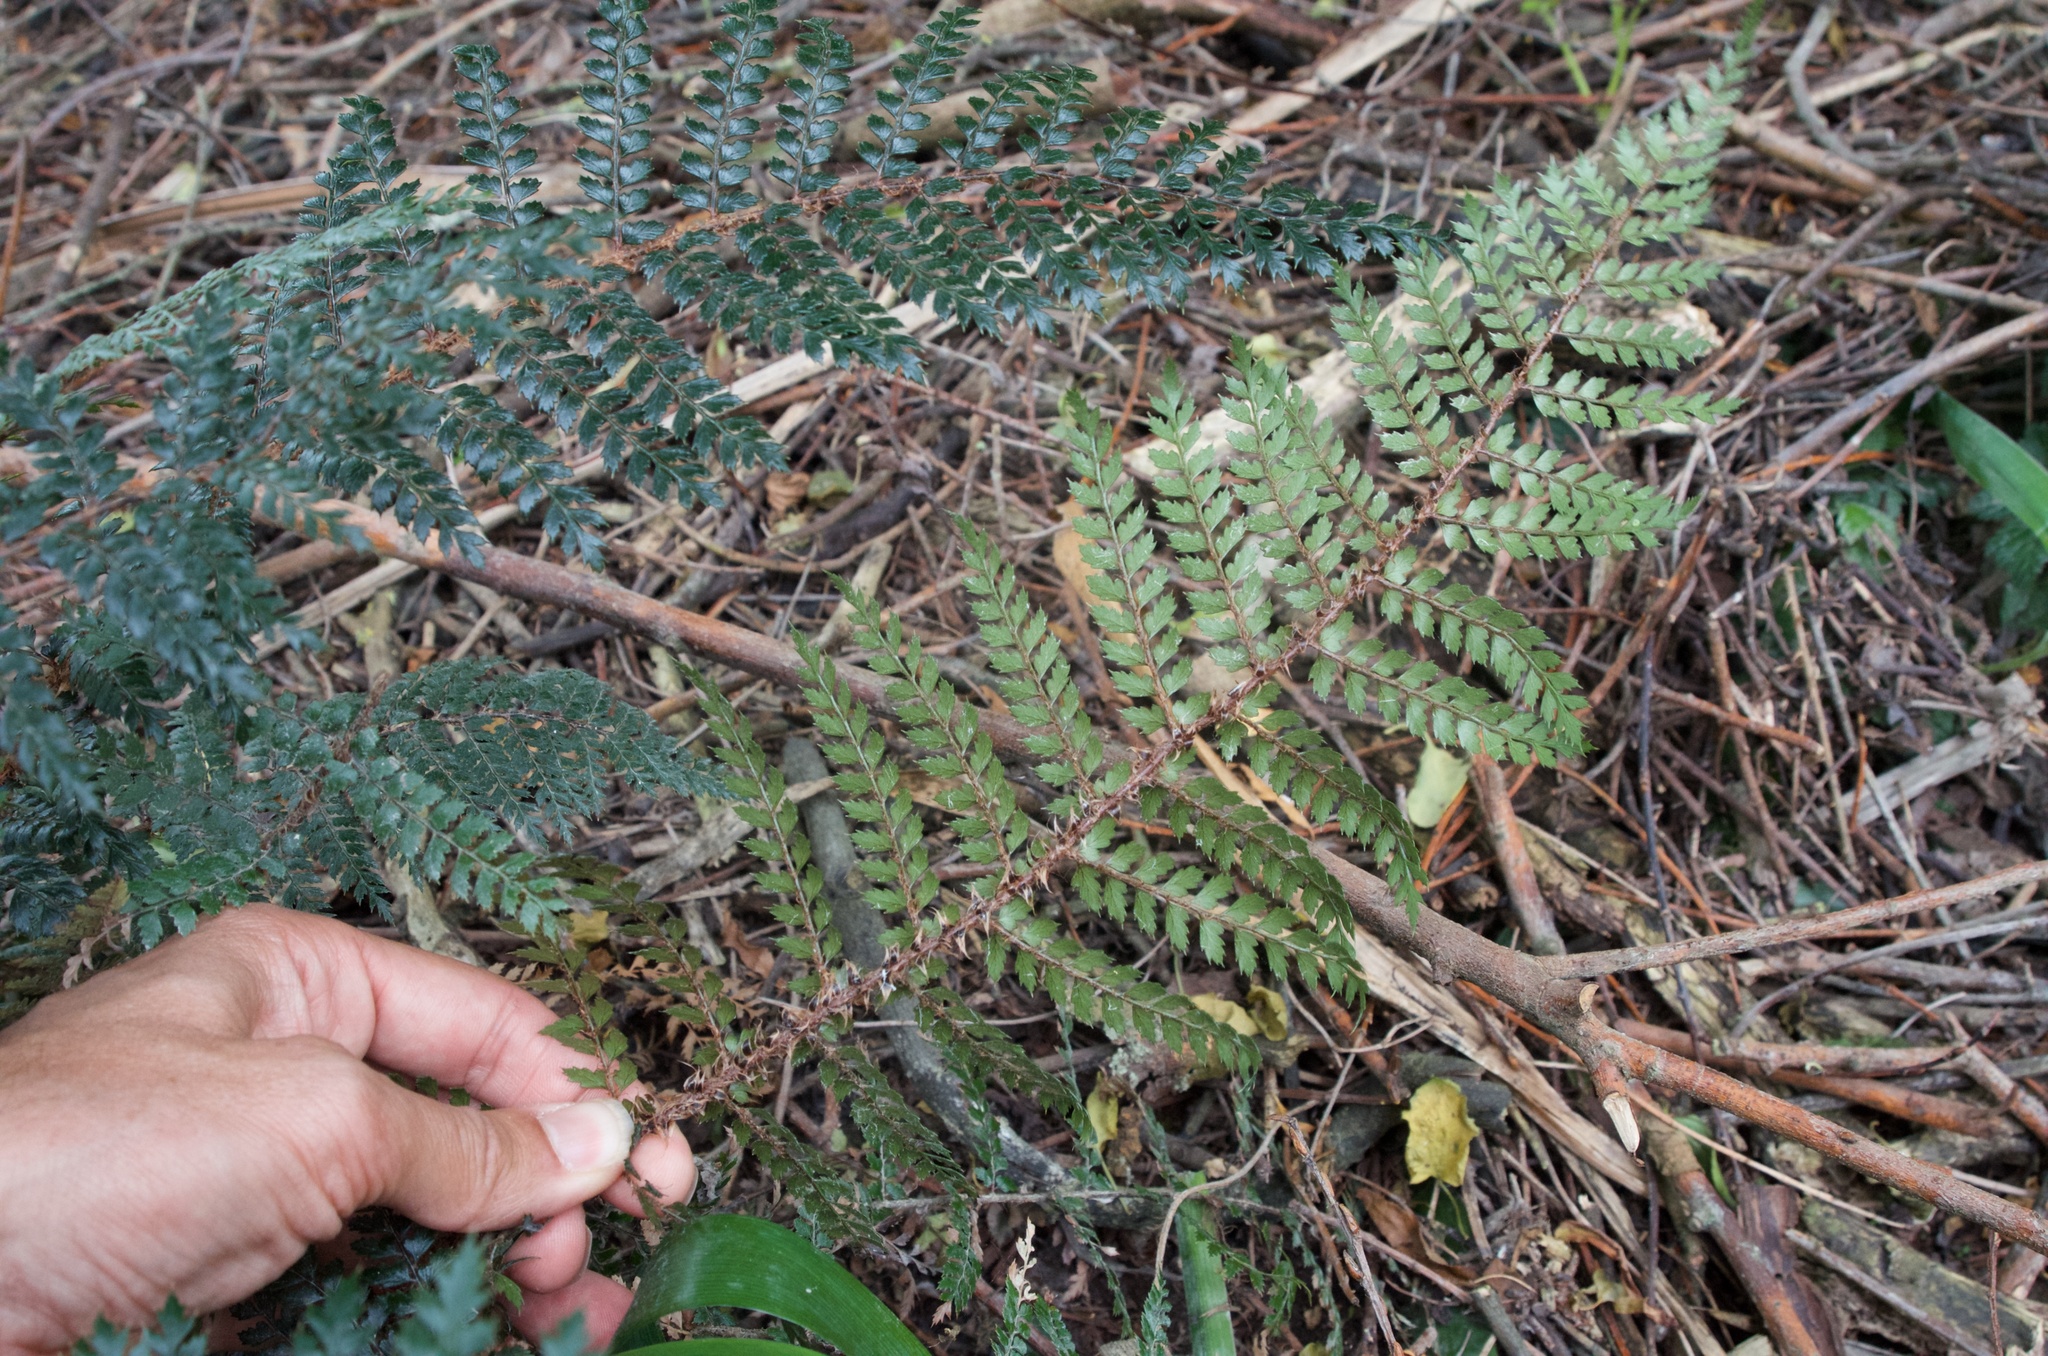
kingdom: Plantae
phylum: Tracheophyta
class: Polypodiopsida
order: Polypodiales
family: Dryopteridaceae
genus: Polystichum
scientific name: Polystichum vestitum
